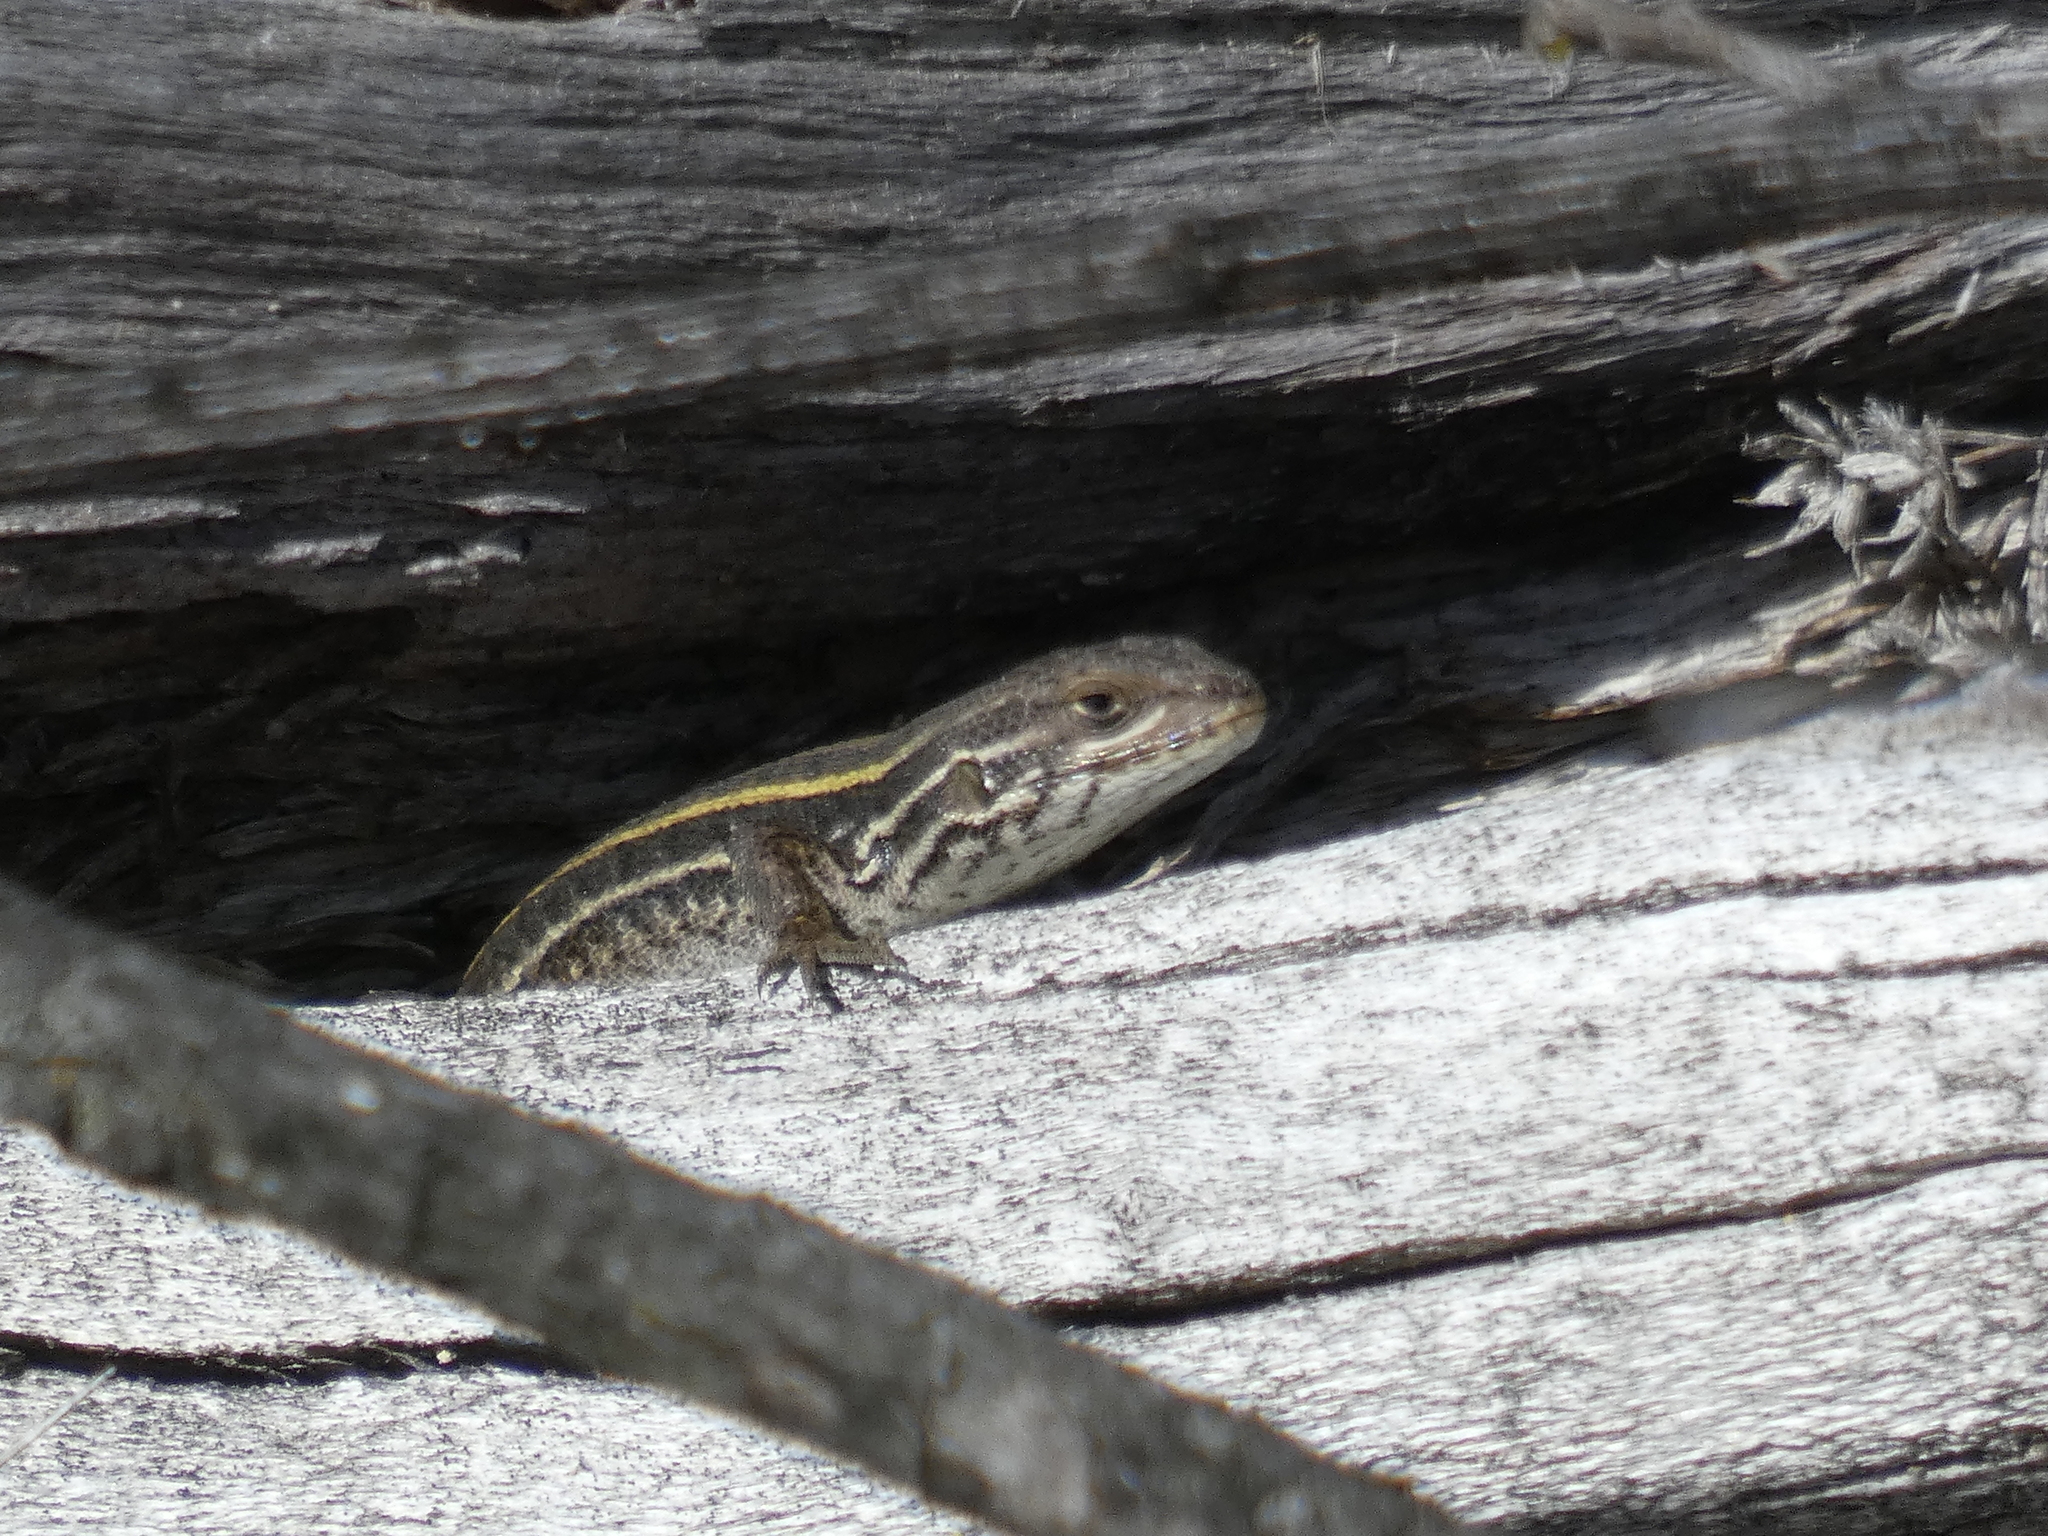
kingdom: Animalia
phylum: Chordata
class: Squamata
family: Liolaemidae
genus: Liolaemus
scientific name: Liolaemus lemniscatus
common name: Wreath tree iguana
